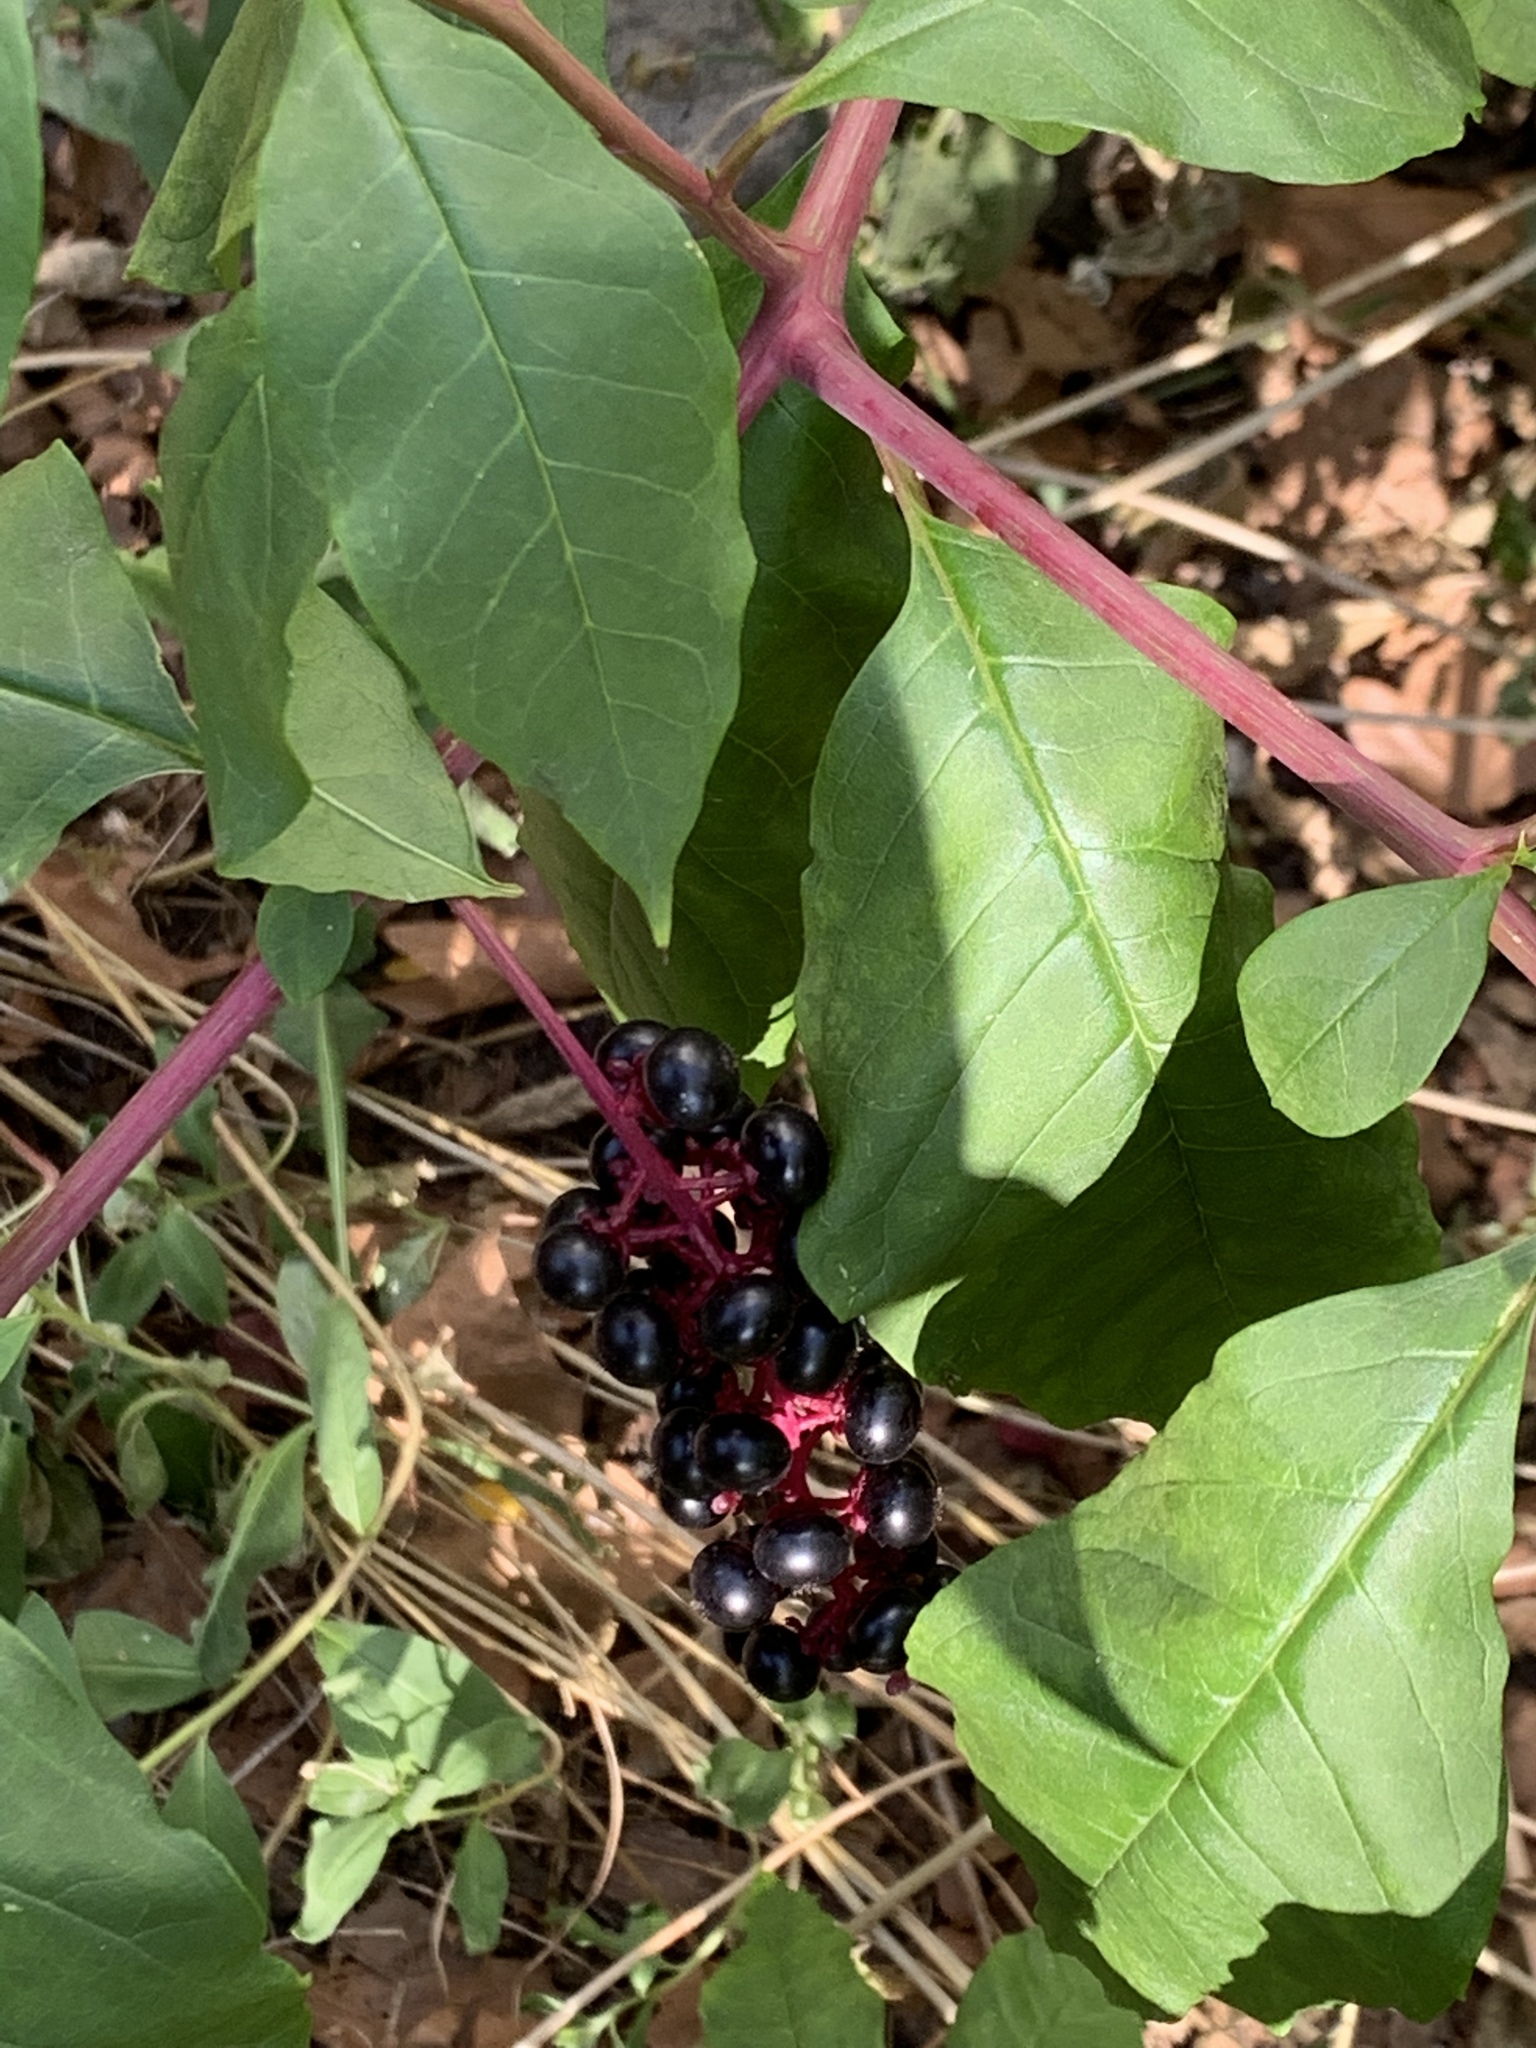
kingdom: Plantae
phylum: Tracheophyta
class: Magnoliopsida
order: Caryophyllales
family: Phytolaccaceae
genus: Phytolacca
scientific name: Phytolacca americana
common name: American pokeweed
